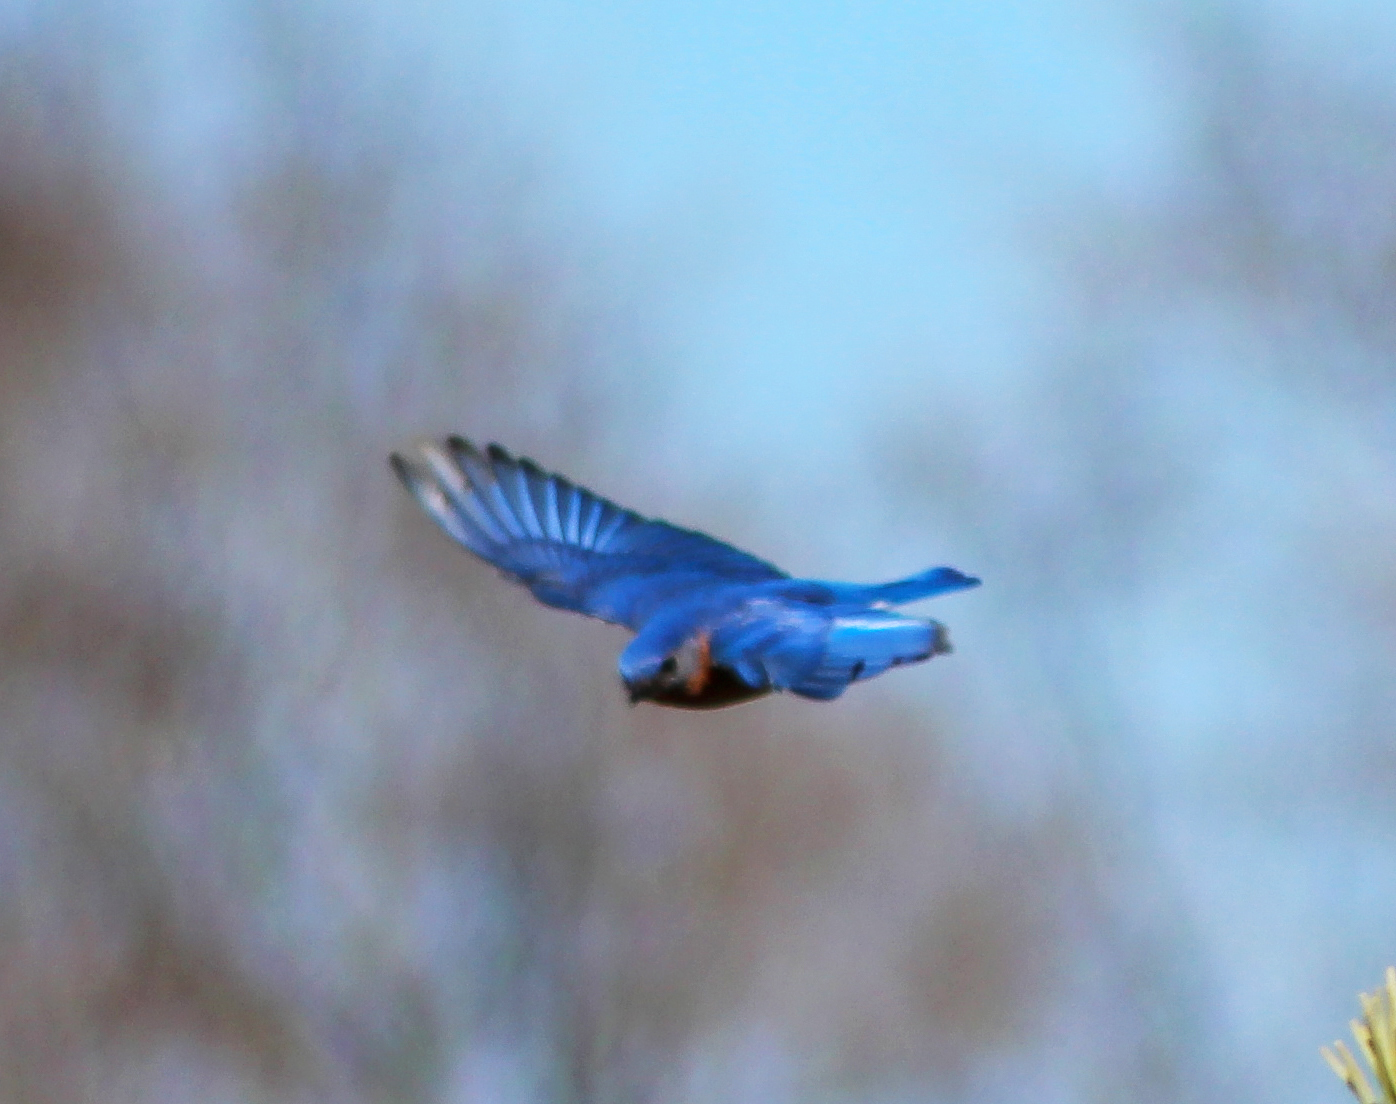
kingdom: Animalia
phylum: Chordata
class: Aves
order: Passeriformes
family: Turdidae
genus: Sialia
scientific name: Sialia sialis
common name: Eastern bluebird
